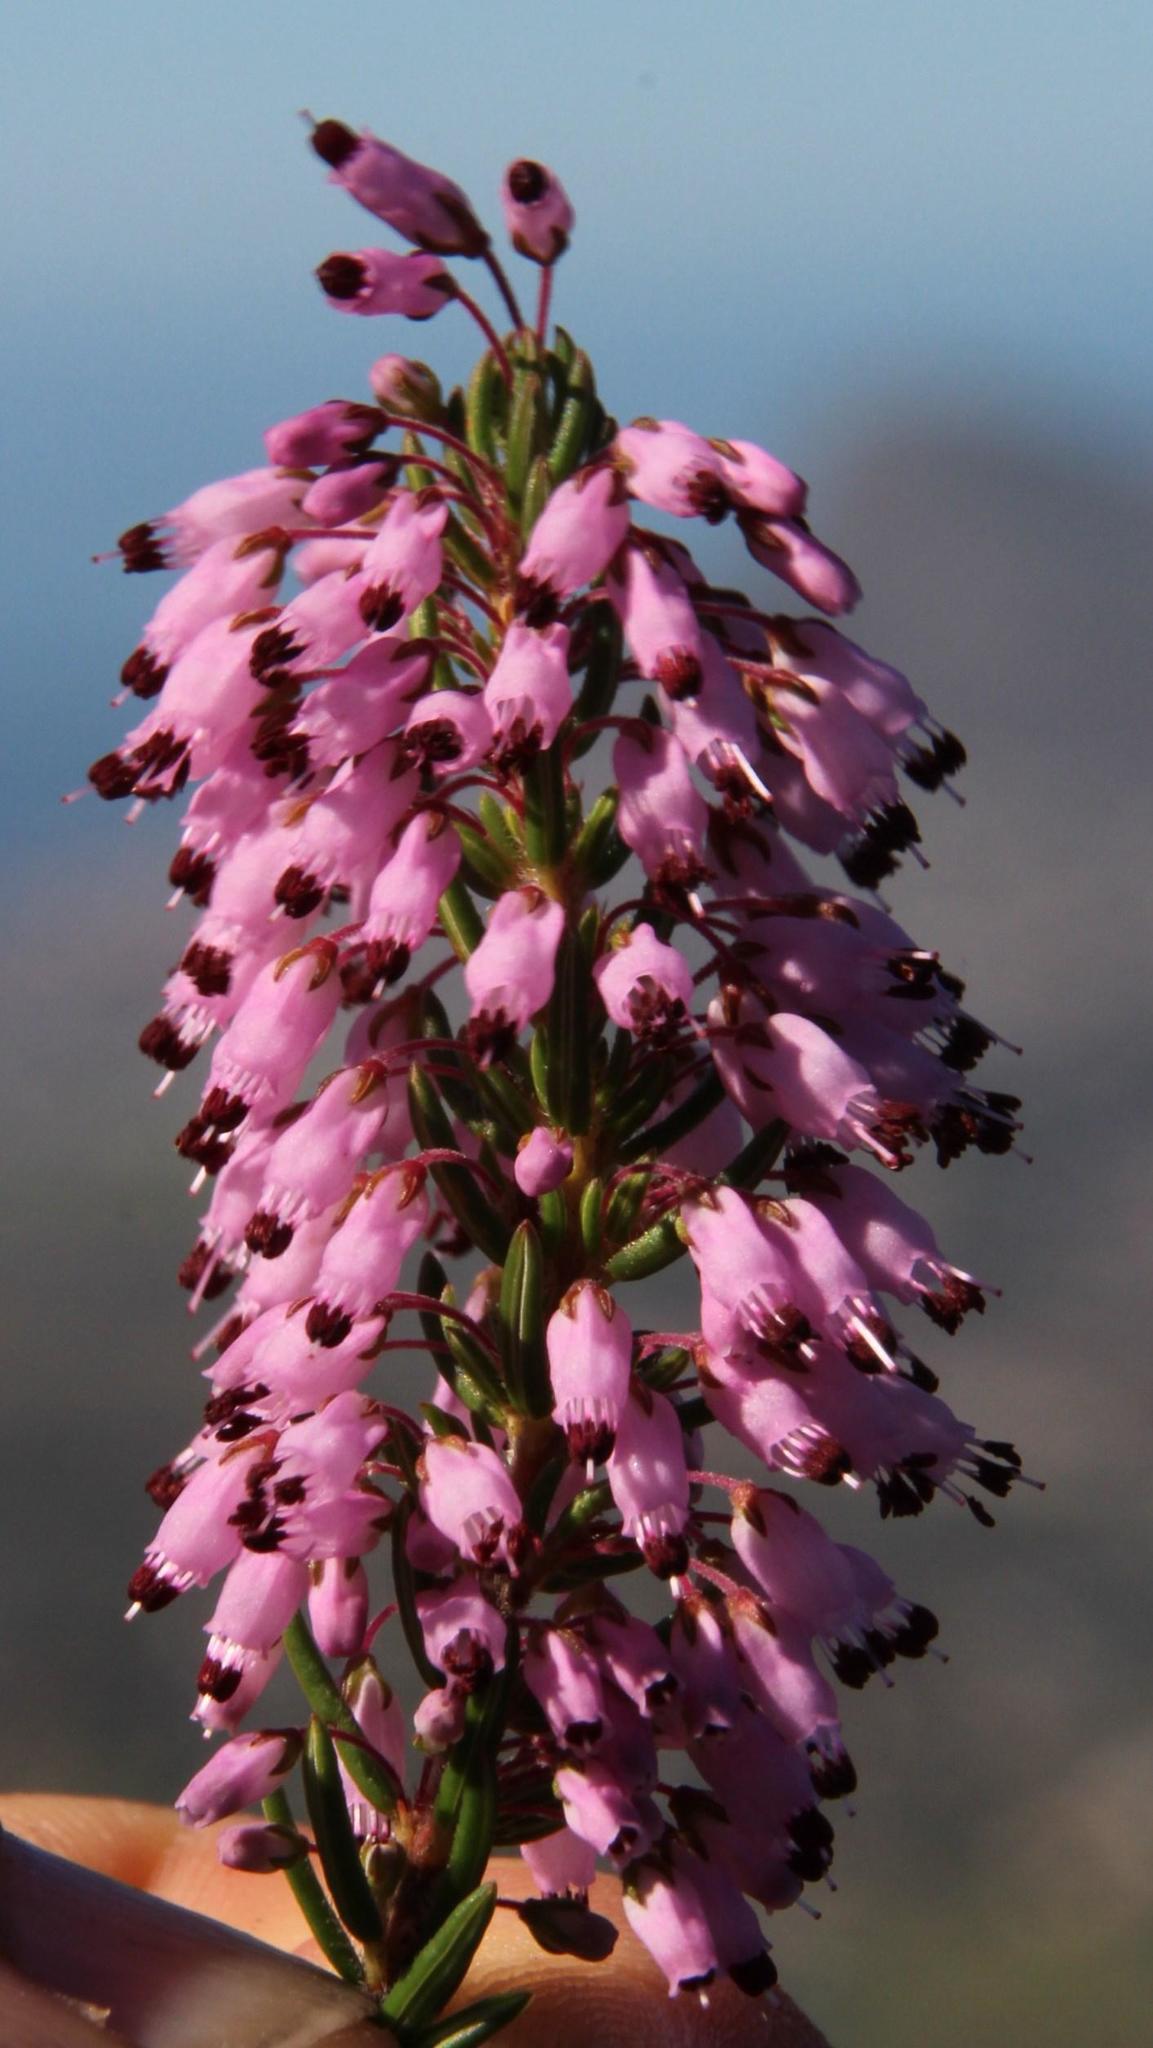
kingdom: Plantae
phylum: Tracheophyta
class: Magnoliopsida
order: Ericales
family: Ericaceae
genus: Erica
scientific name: Erica nudiflora
